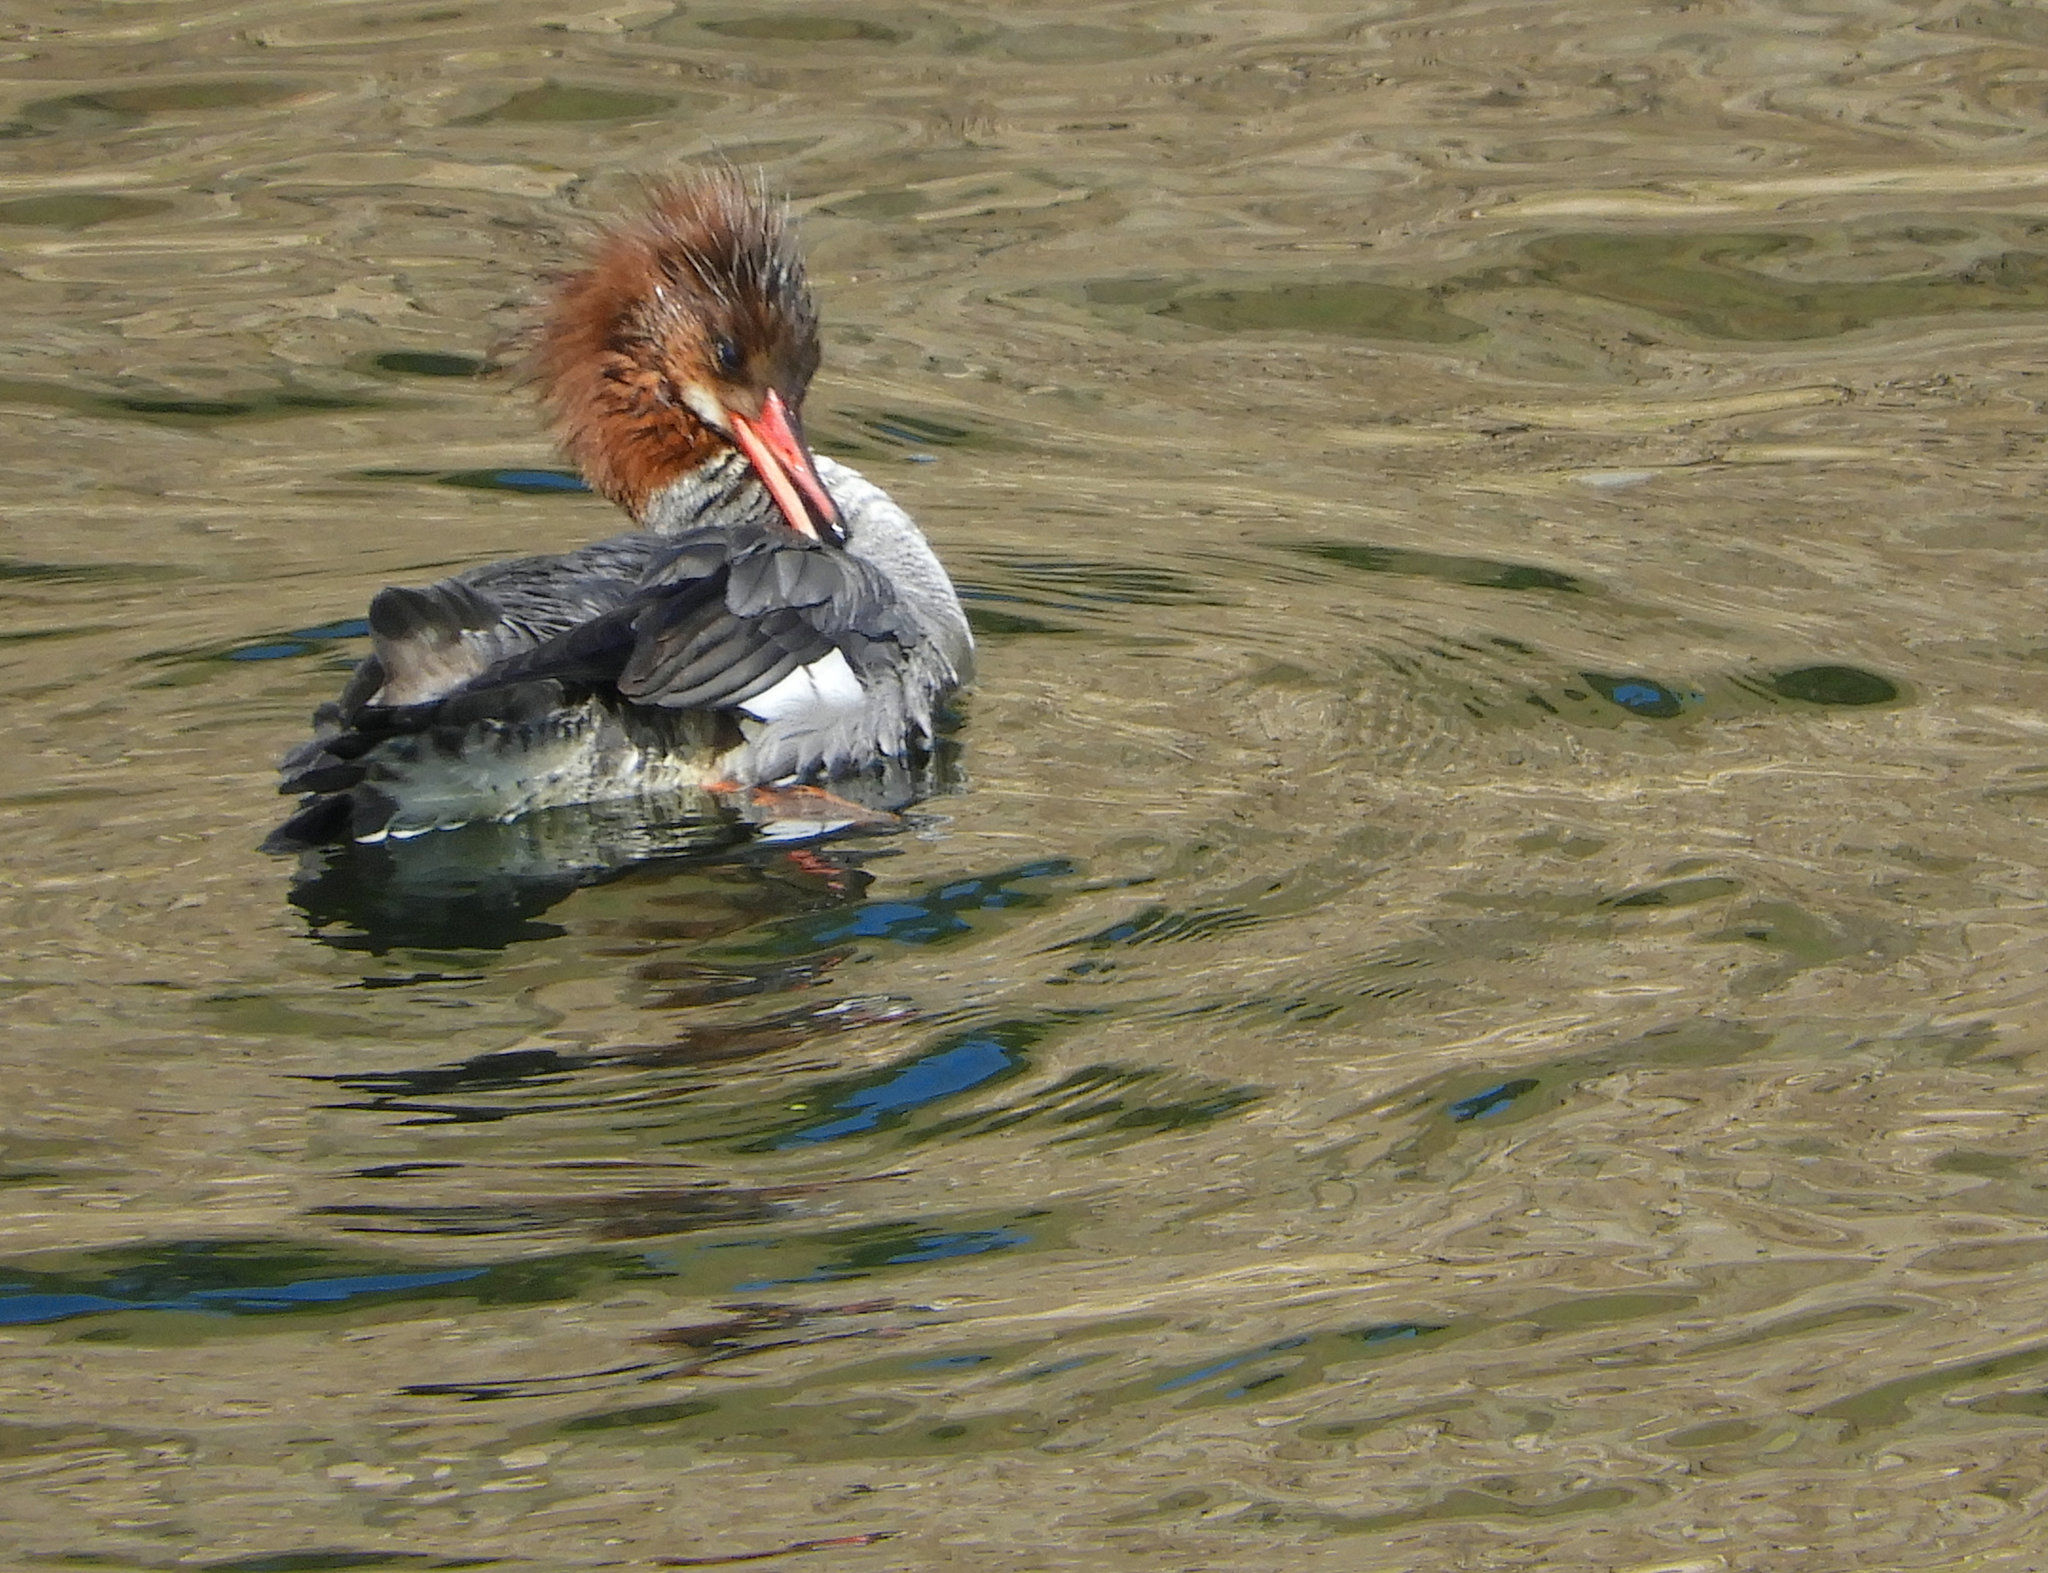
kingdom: Animalia
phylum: Chordata
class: Aves
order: Anseriformes
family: Anatidae
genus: Mergus
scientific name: Mergus merganser
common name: Common merganser
